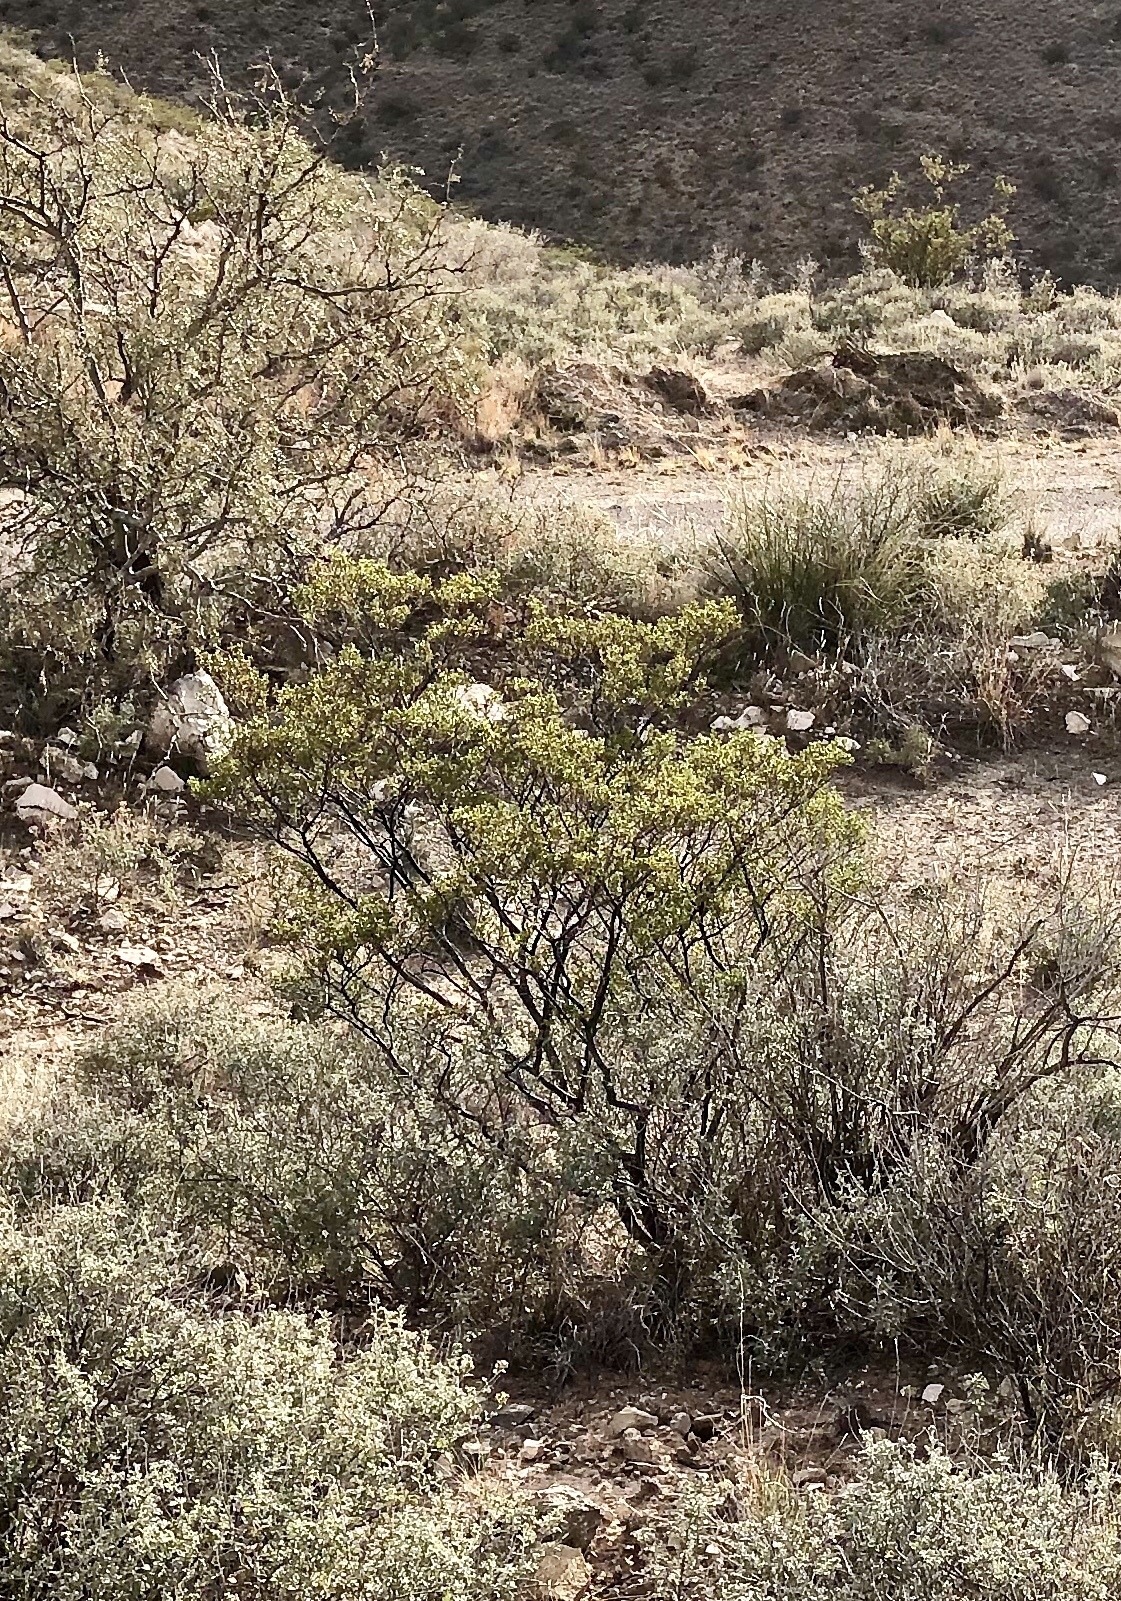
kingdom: Plantae
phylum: Tracheophyta
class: Magnoliopsida
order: Zygophyllales
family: Zygophyllaceae
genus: Larrea
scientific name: Larrea tridentata
